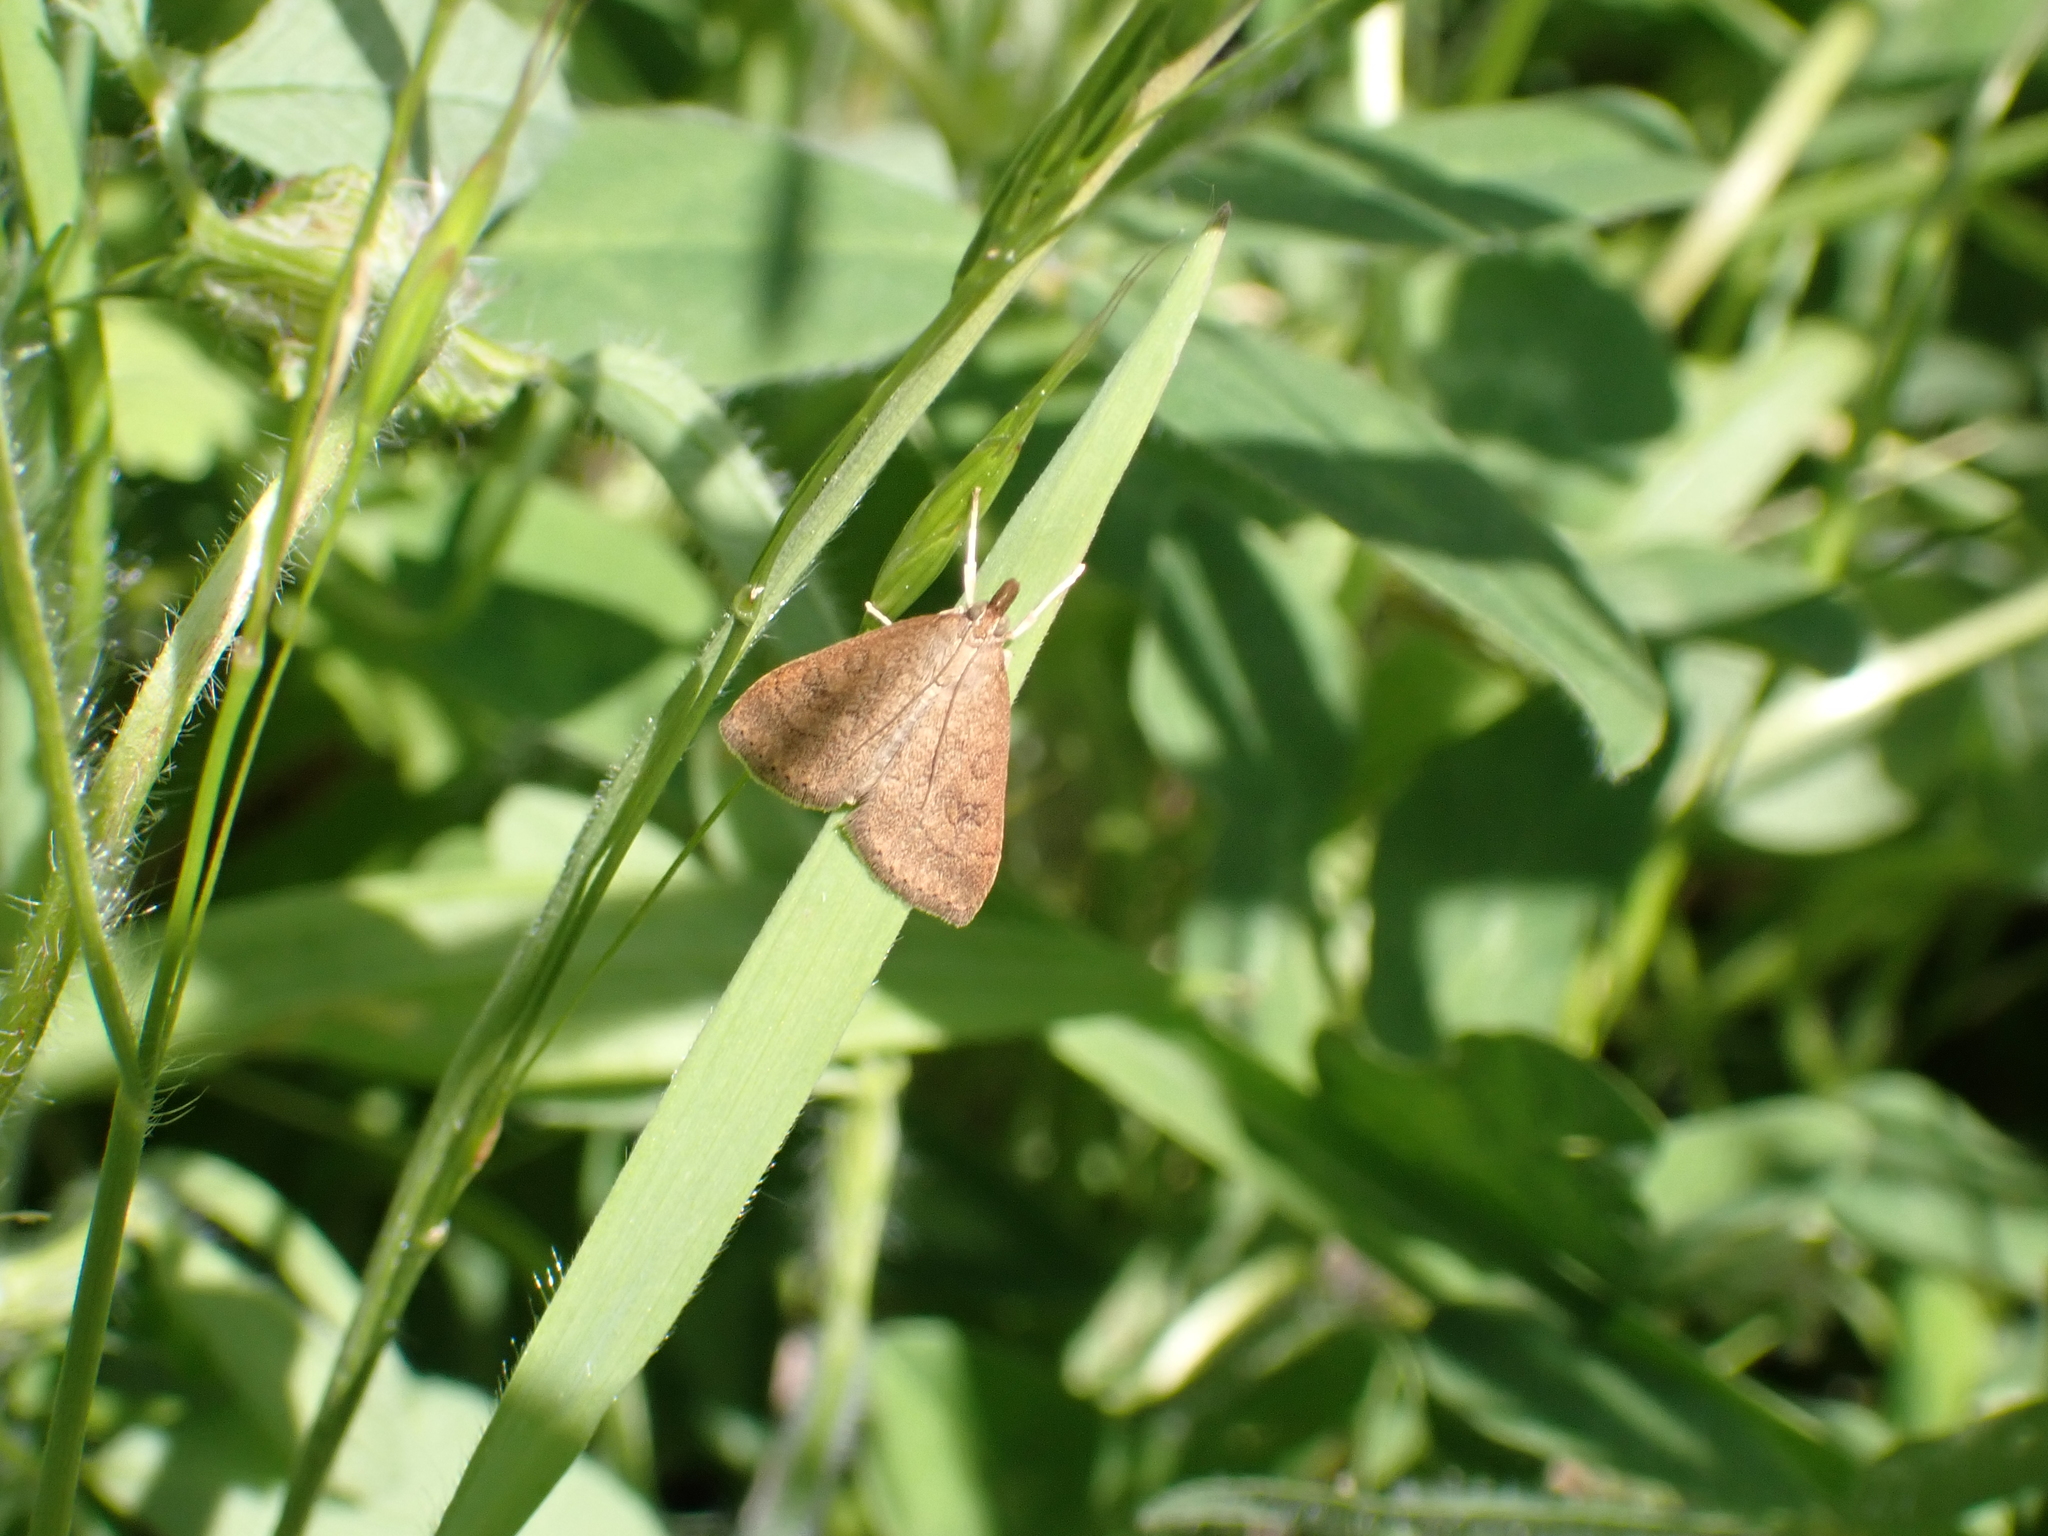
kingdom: Animalia
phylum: Arthropoda
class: Insecta
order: Lepidoptera
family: Crambidae
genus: Udea
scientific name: Udea rubigalis
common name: Celery leaftier moth
